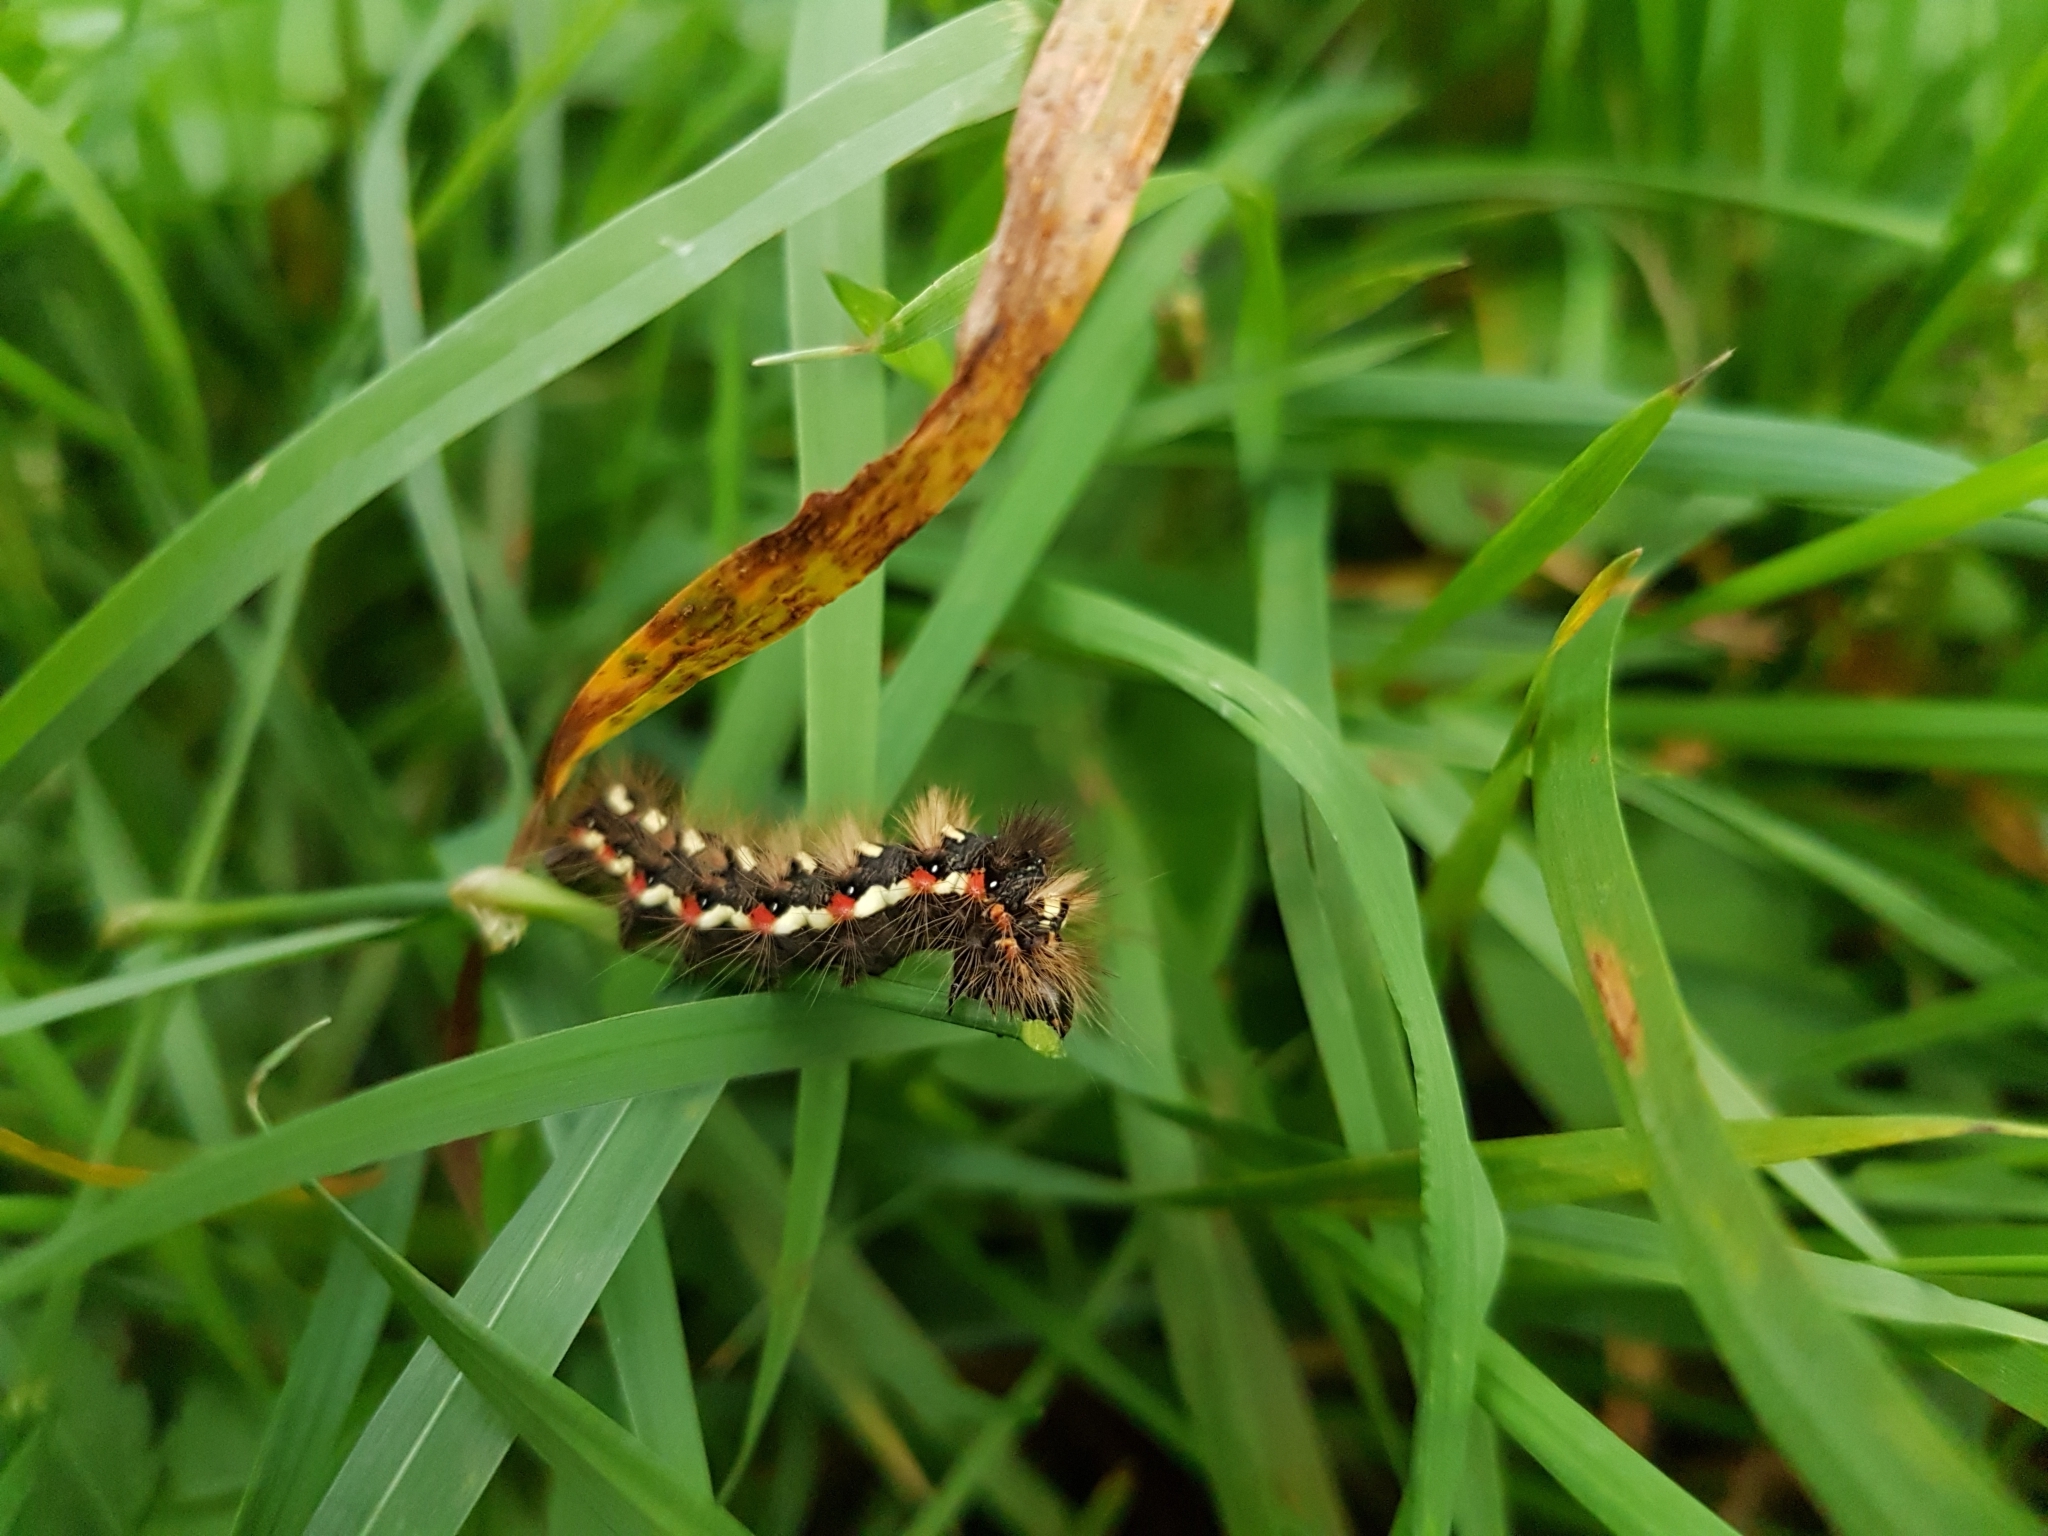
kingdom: Animalia
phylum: Arthropoda
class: Insecta
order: Lepidoptera
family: Noctuidae
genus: Acronicta
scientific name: Acronicta rumicis
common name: Knot grass
